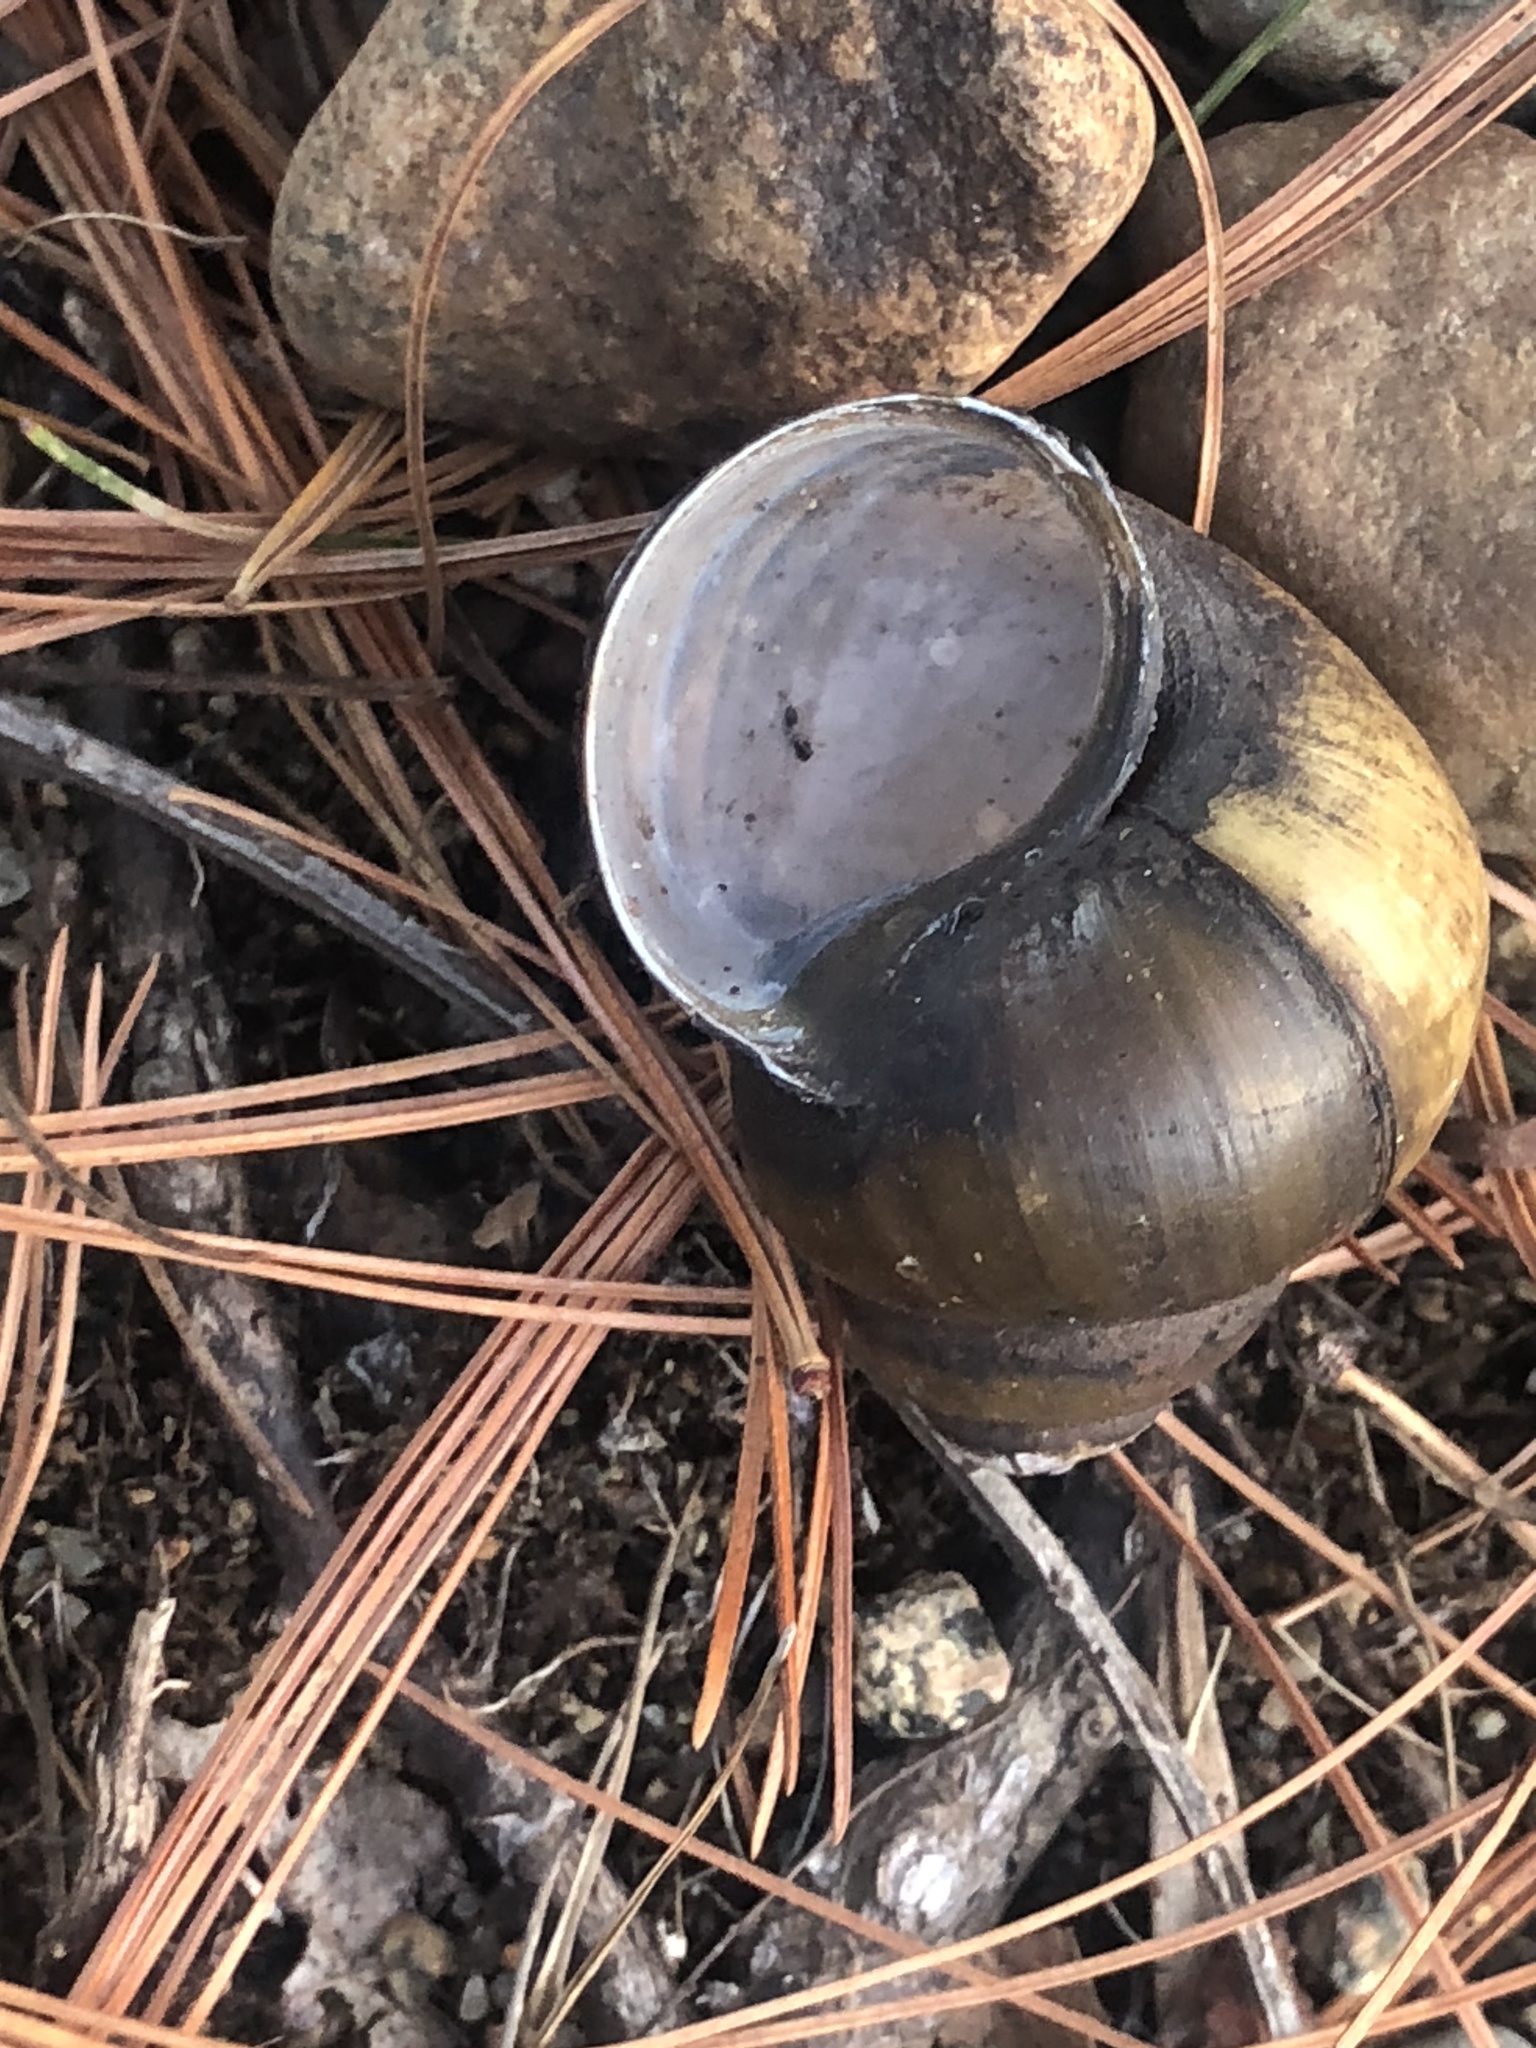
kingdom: Animalia
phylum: Mollusca
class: Gastropoda
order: Architaenioglossa
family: Viviparidae
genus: Cipangopaludina
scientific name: Cipangopaludina chinensis
